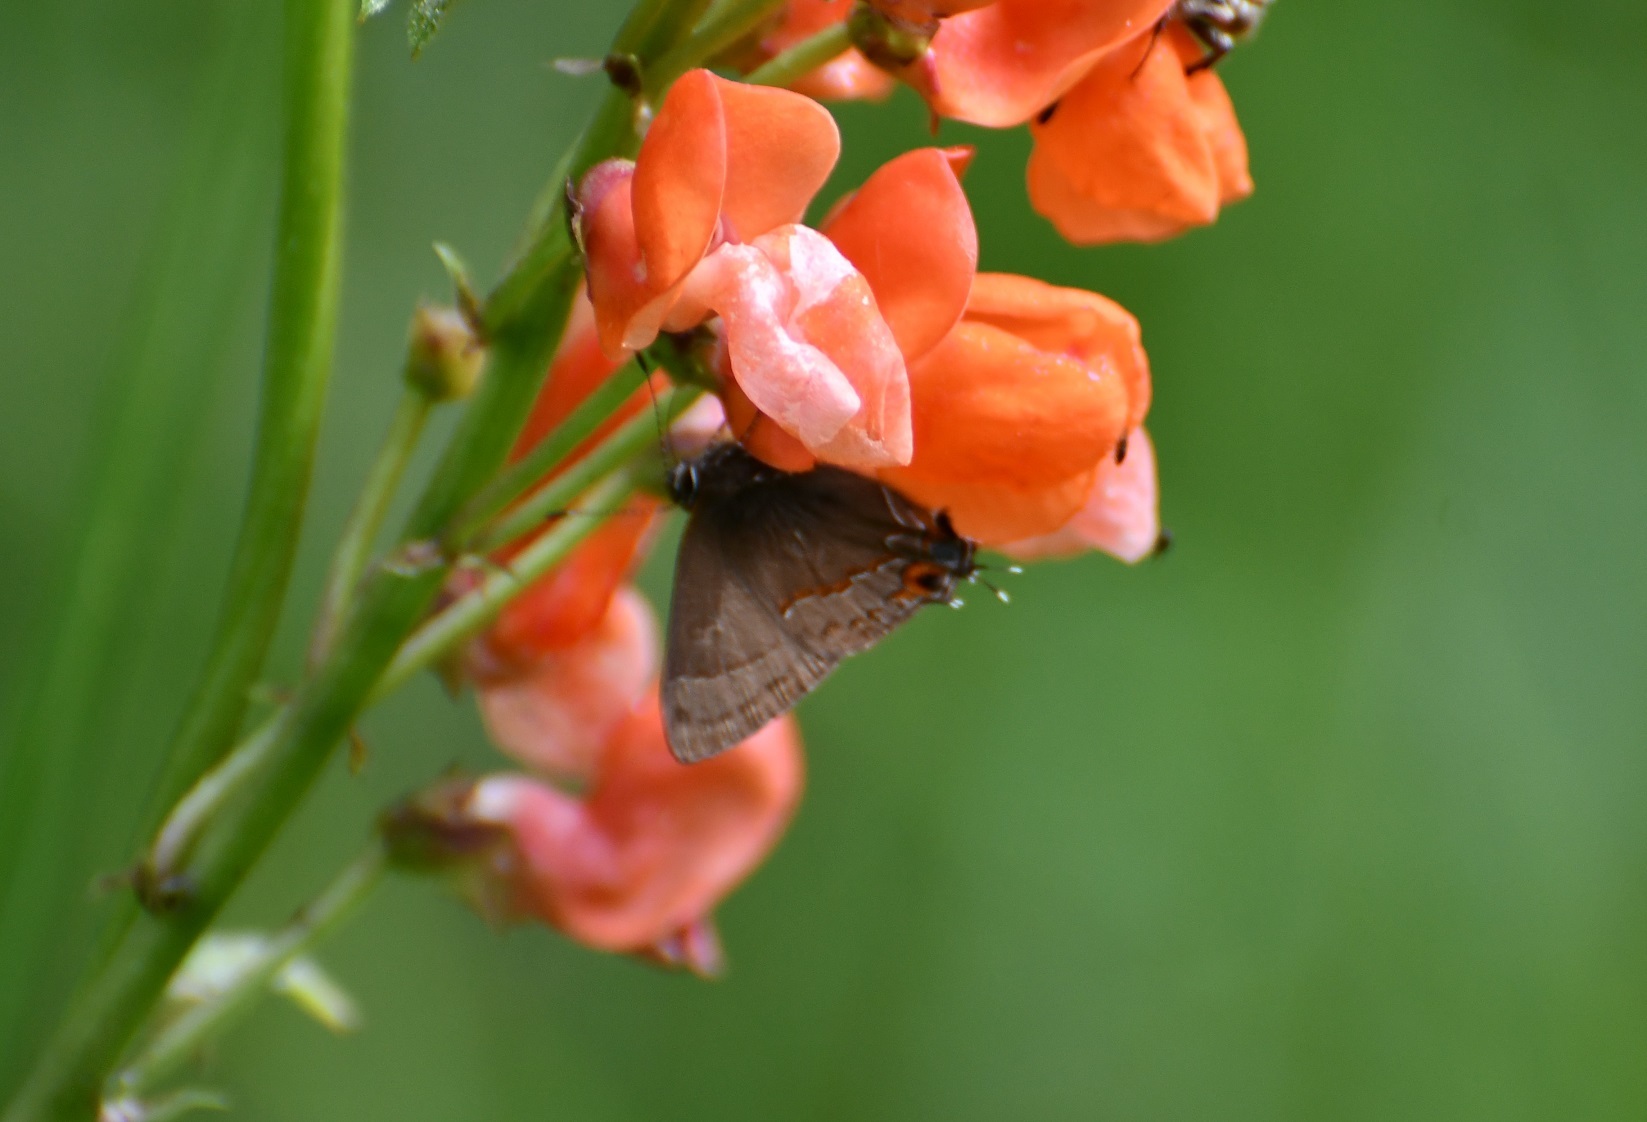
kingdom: Animalia
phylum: Arthropoda
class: Insecta
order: Lepidoptera
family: Lycaenidae
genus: Electrostrymon
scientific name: Electrostrymon
